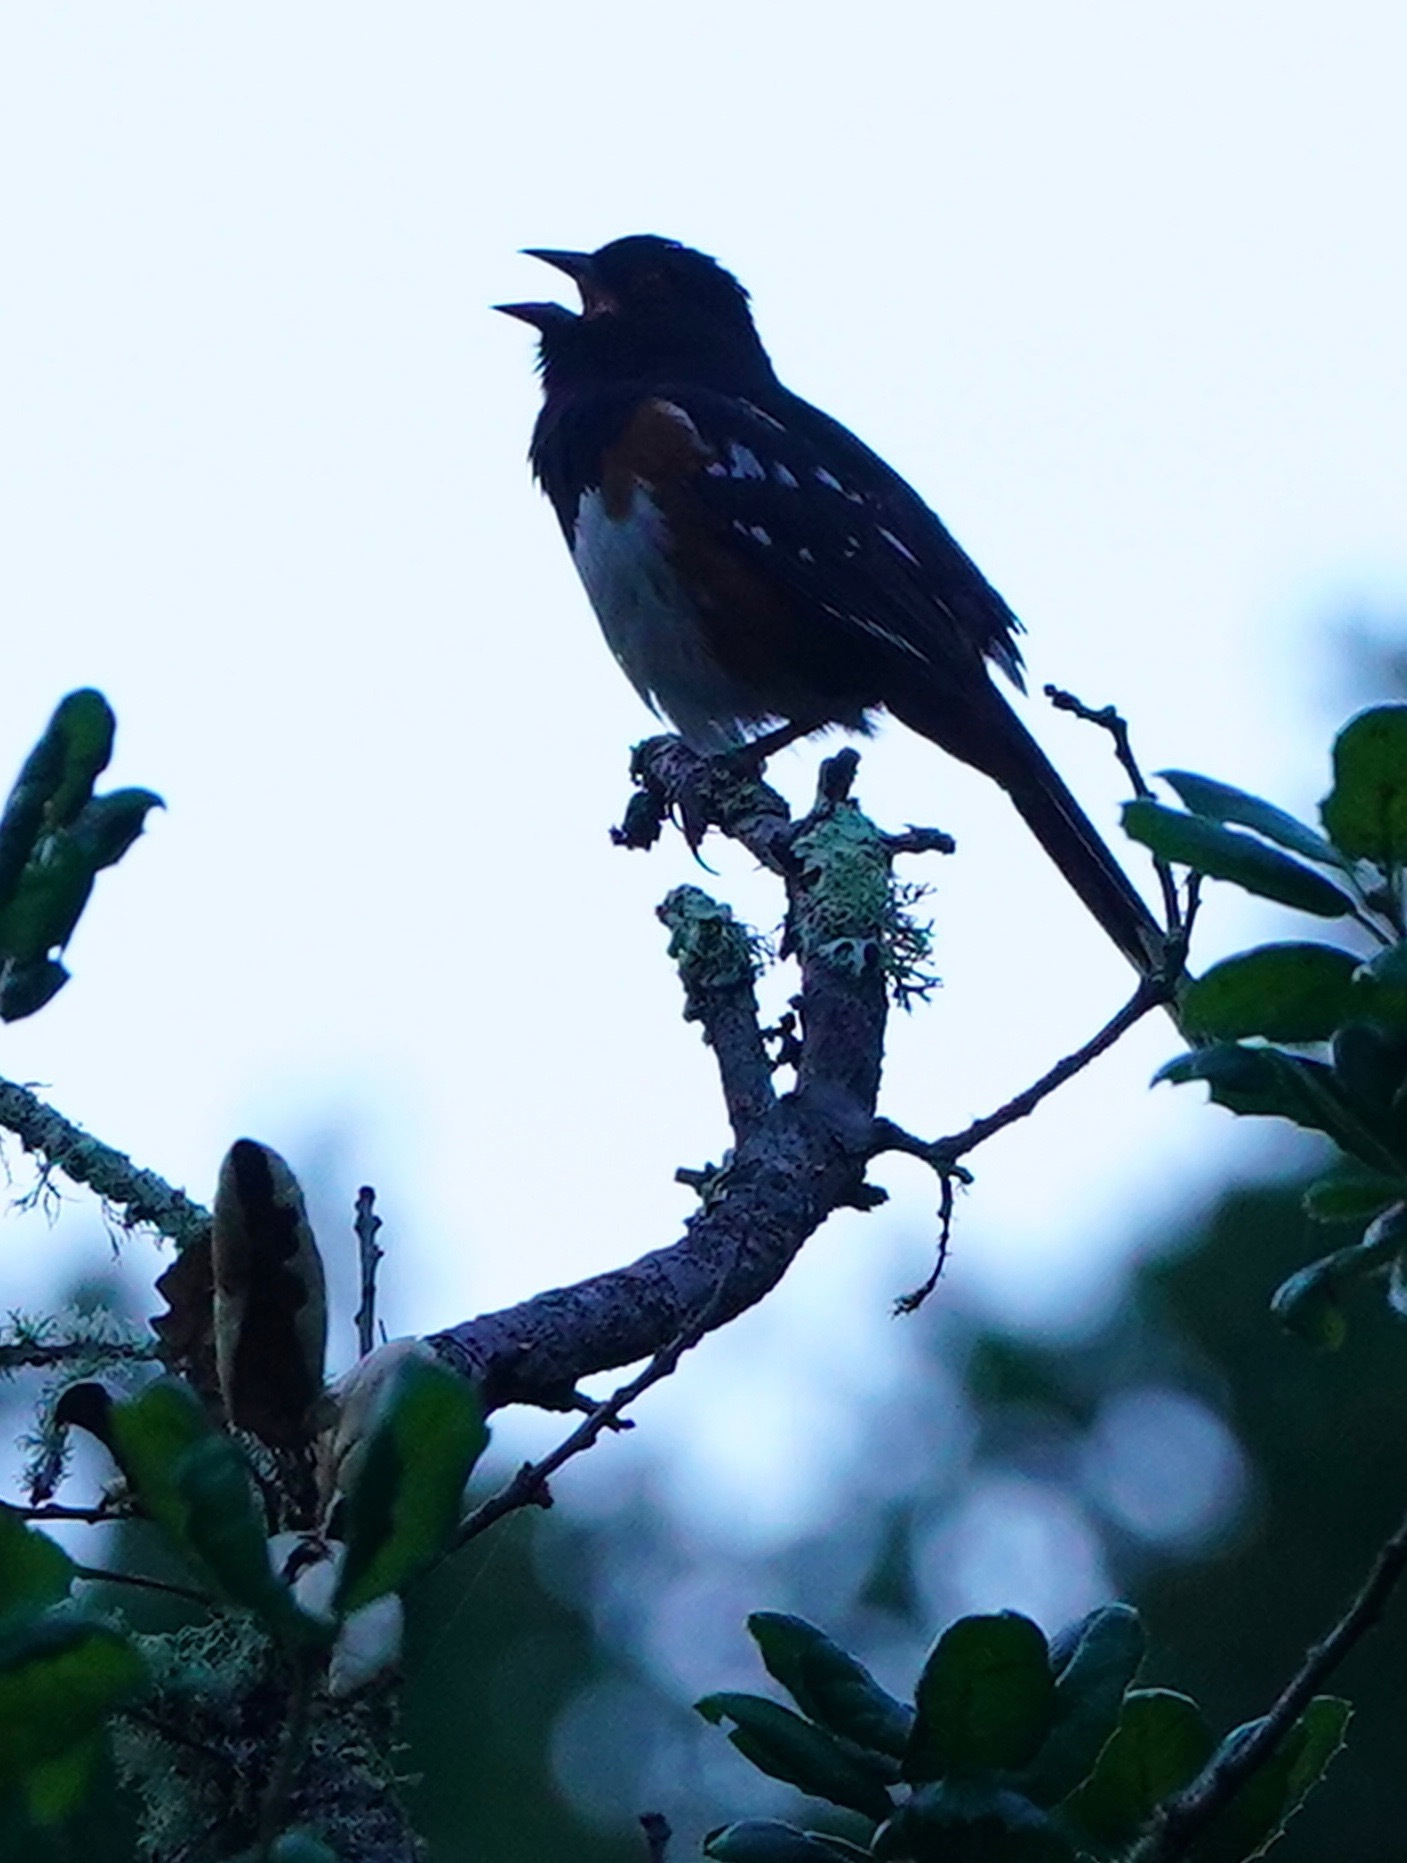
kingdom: Animalia
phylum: Chordata
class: Aves
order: Passeriformes
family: Passerellidae
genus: Pipilo
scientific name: Pipilo maculatus
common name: Spotted towhee
